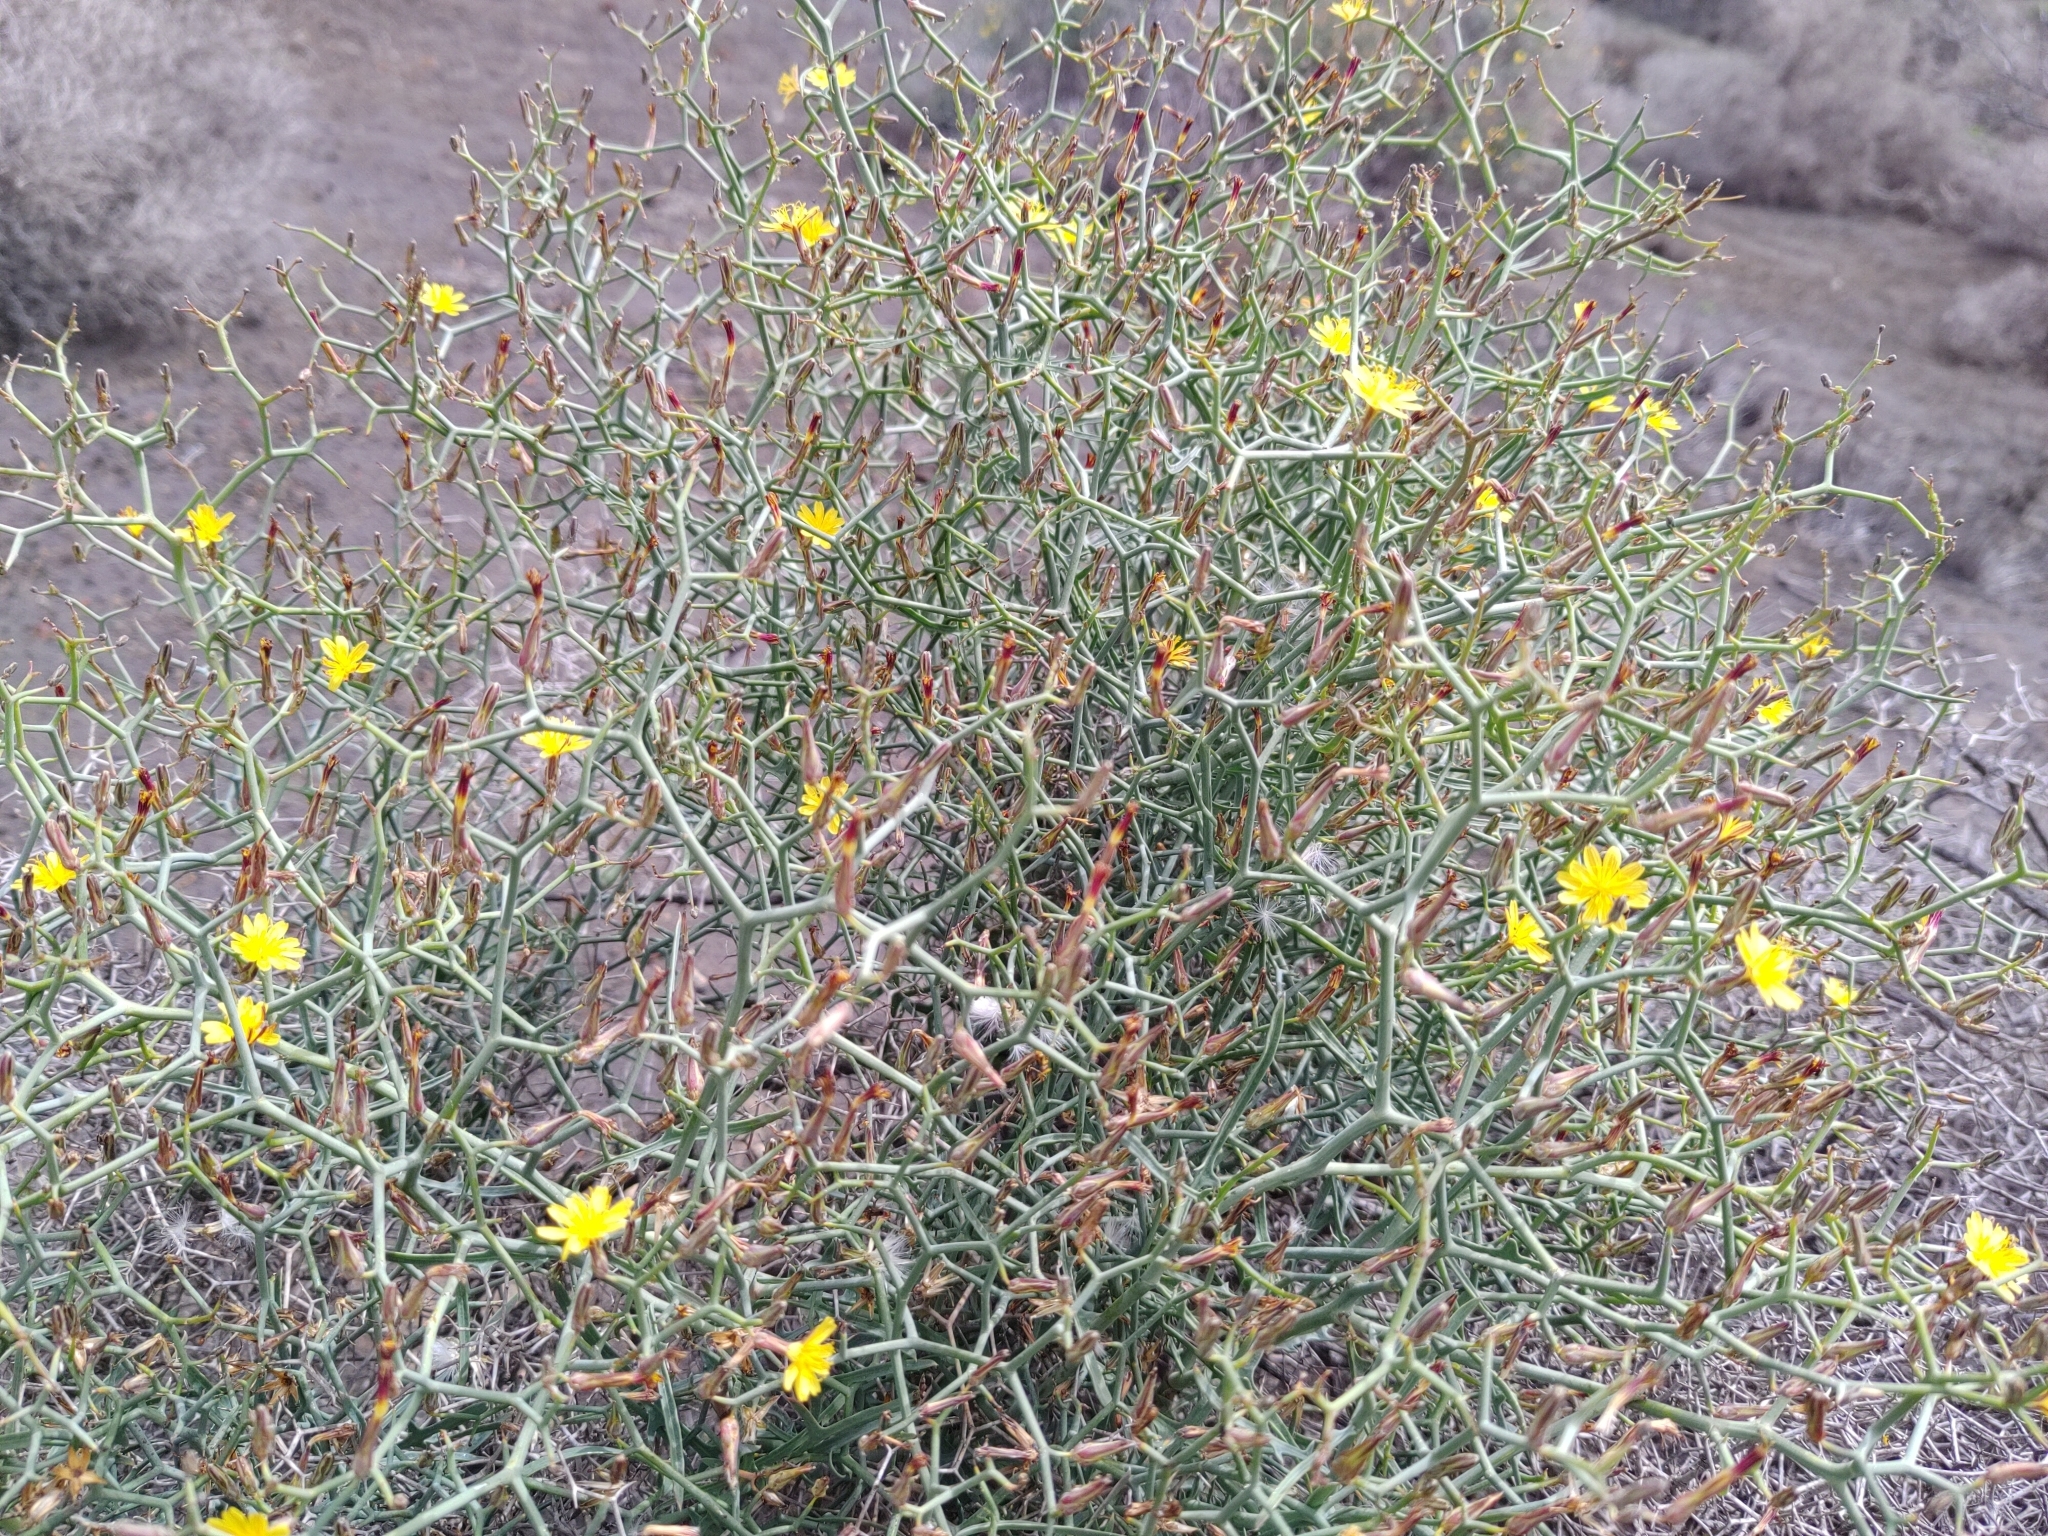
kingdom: Plantae
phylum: Tracheophyta
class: Magnoliopsida
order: Asterales
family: Asteraceae
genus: Launaea
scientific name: Launaea arborescens
